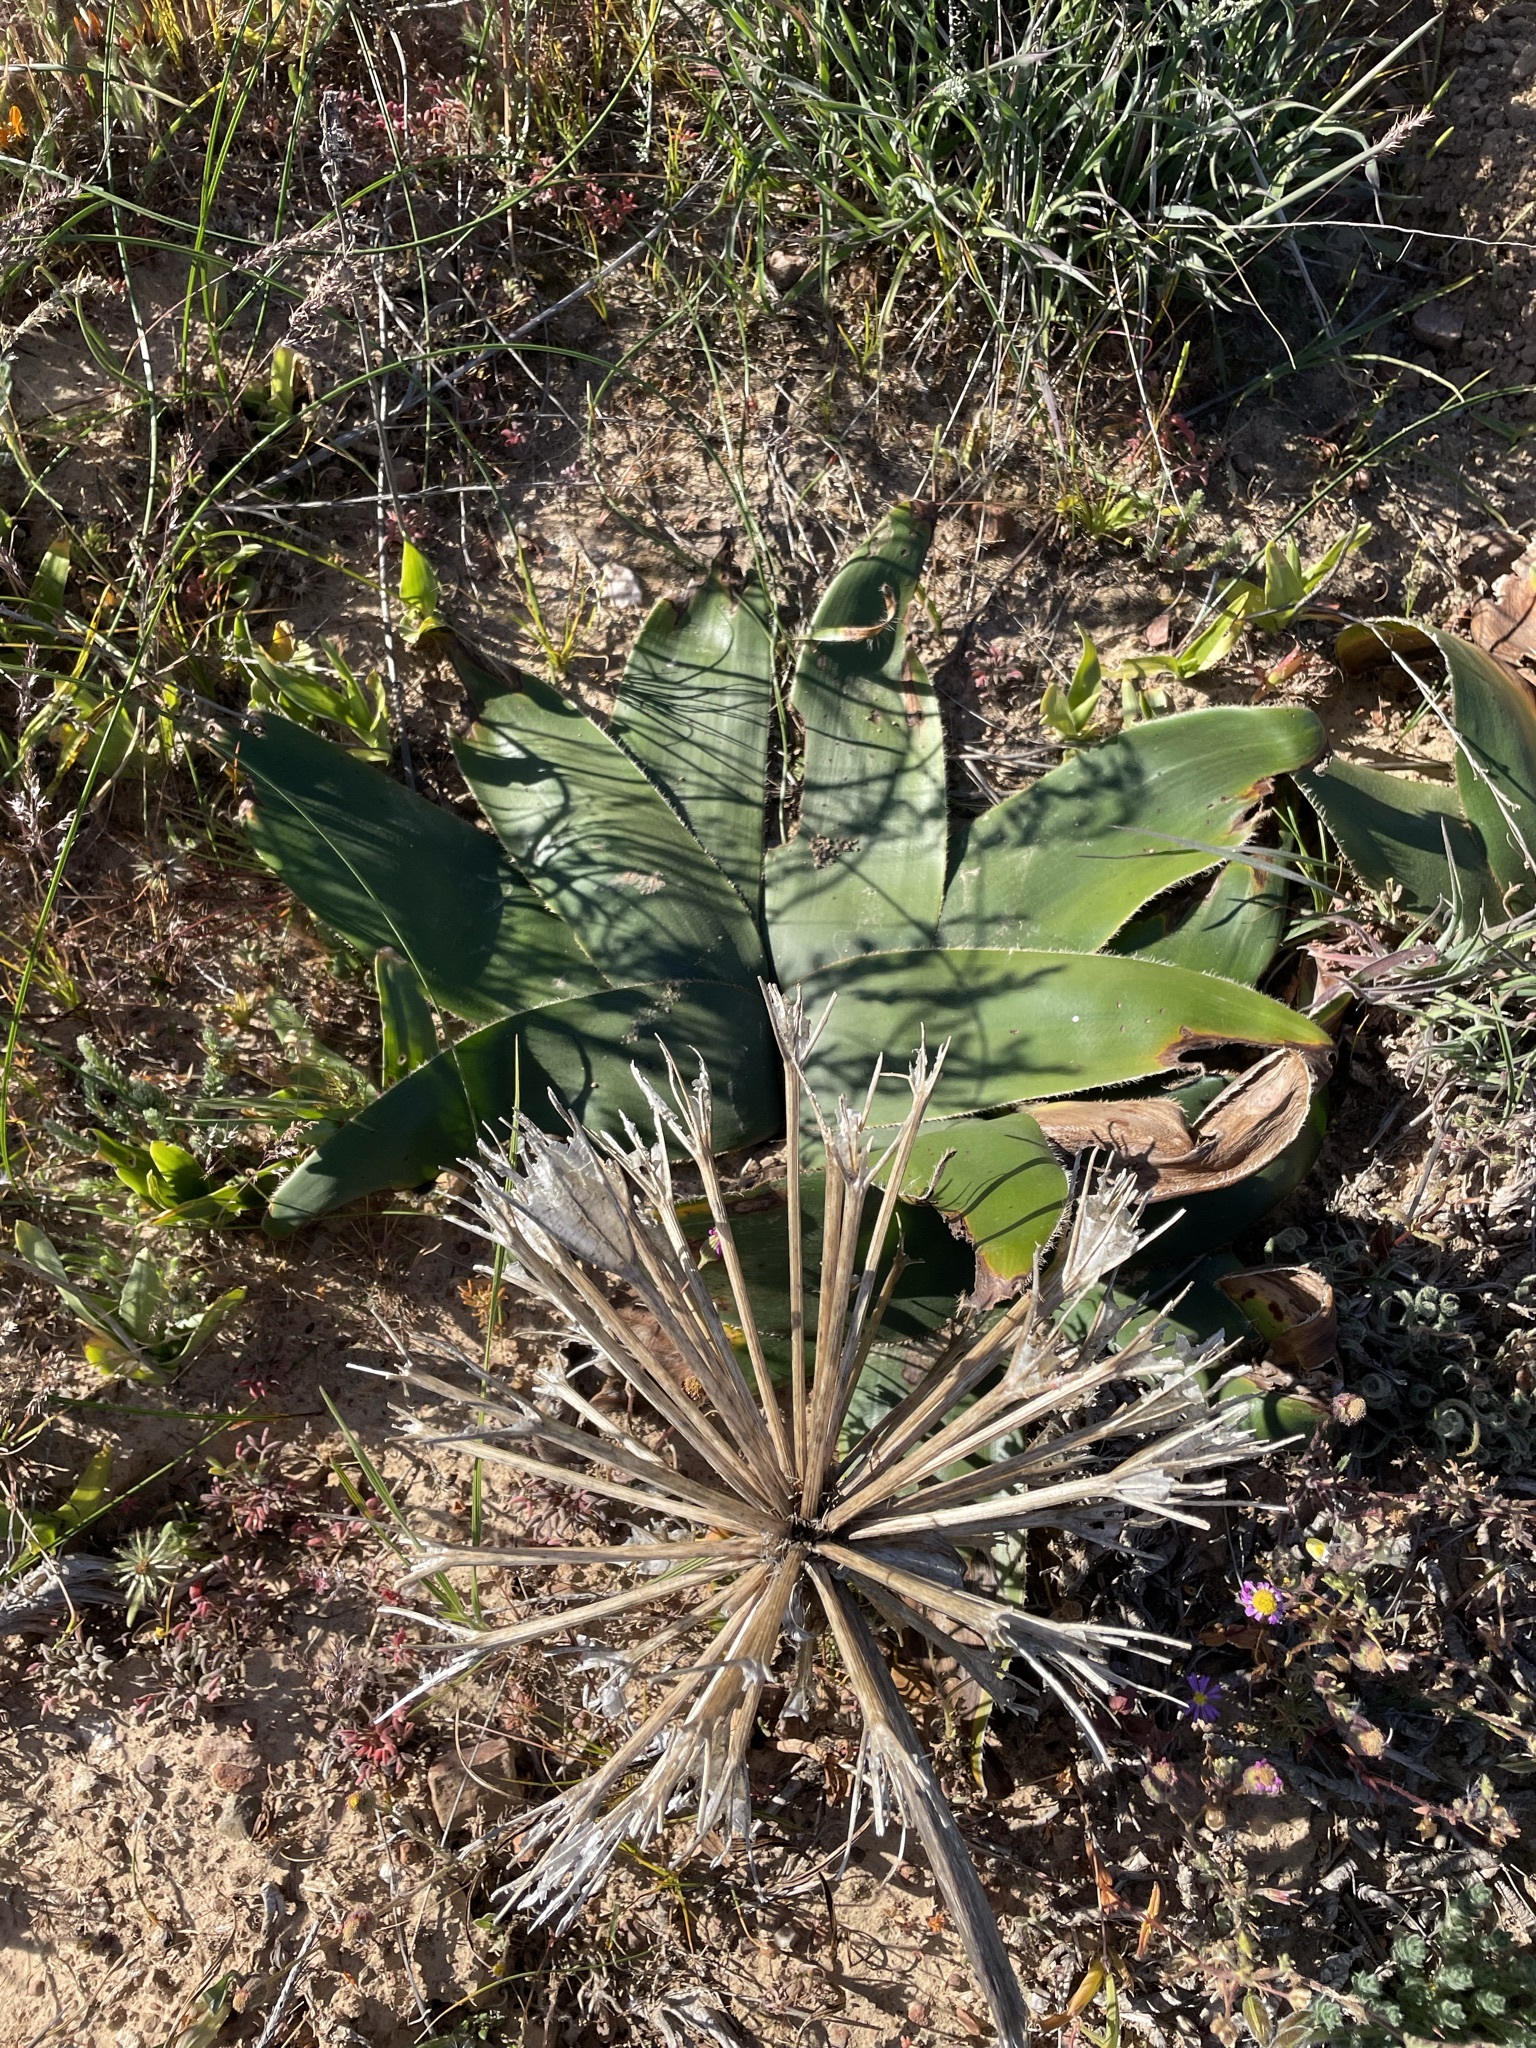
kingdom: Plantae
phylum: Tracheophyta
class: Liliopsida
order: Asparagales
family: Amaryllidaceae
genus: Crossyne
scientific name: Crossyne flava
